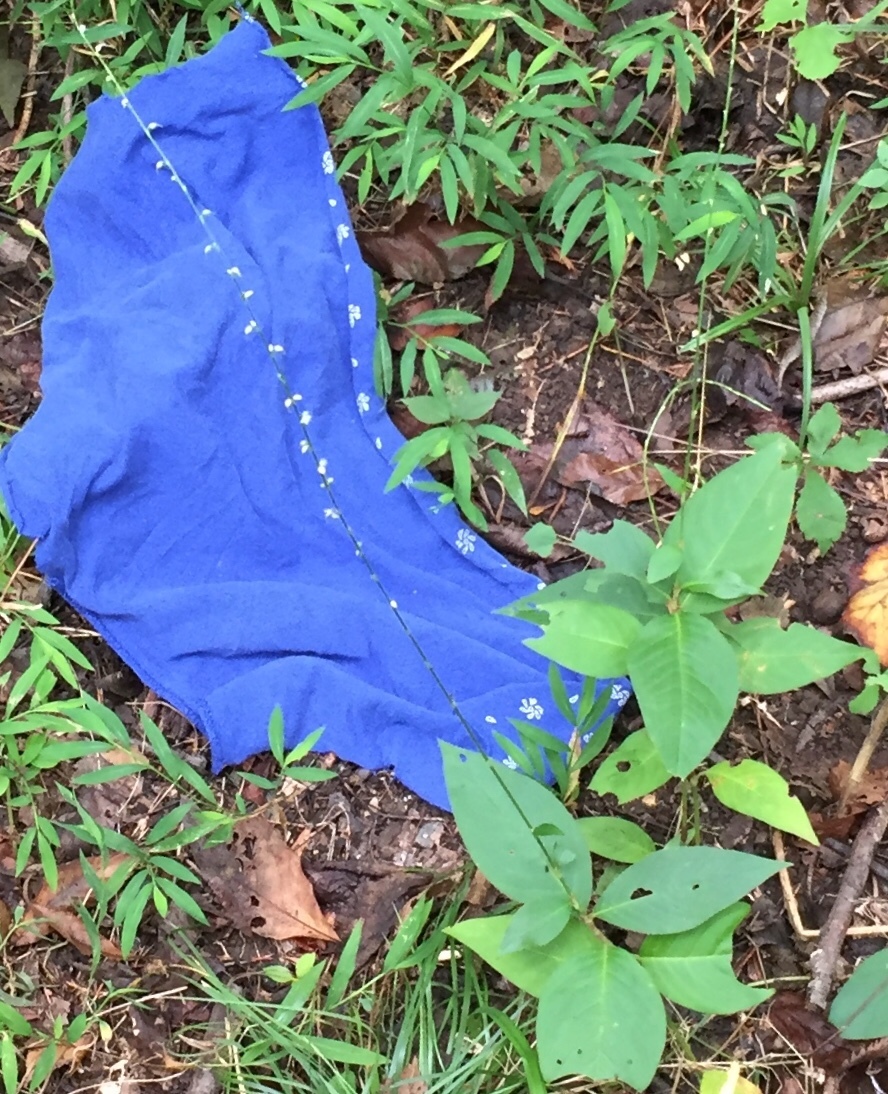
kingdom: Plantae
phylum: Tracheophyta
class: Magnoliopsida
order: Caryophyllales
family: Polygonaceae
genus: Persicaria
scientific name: Persicaria virginiana
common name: Jumpseed
